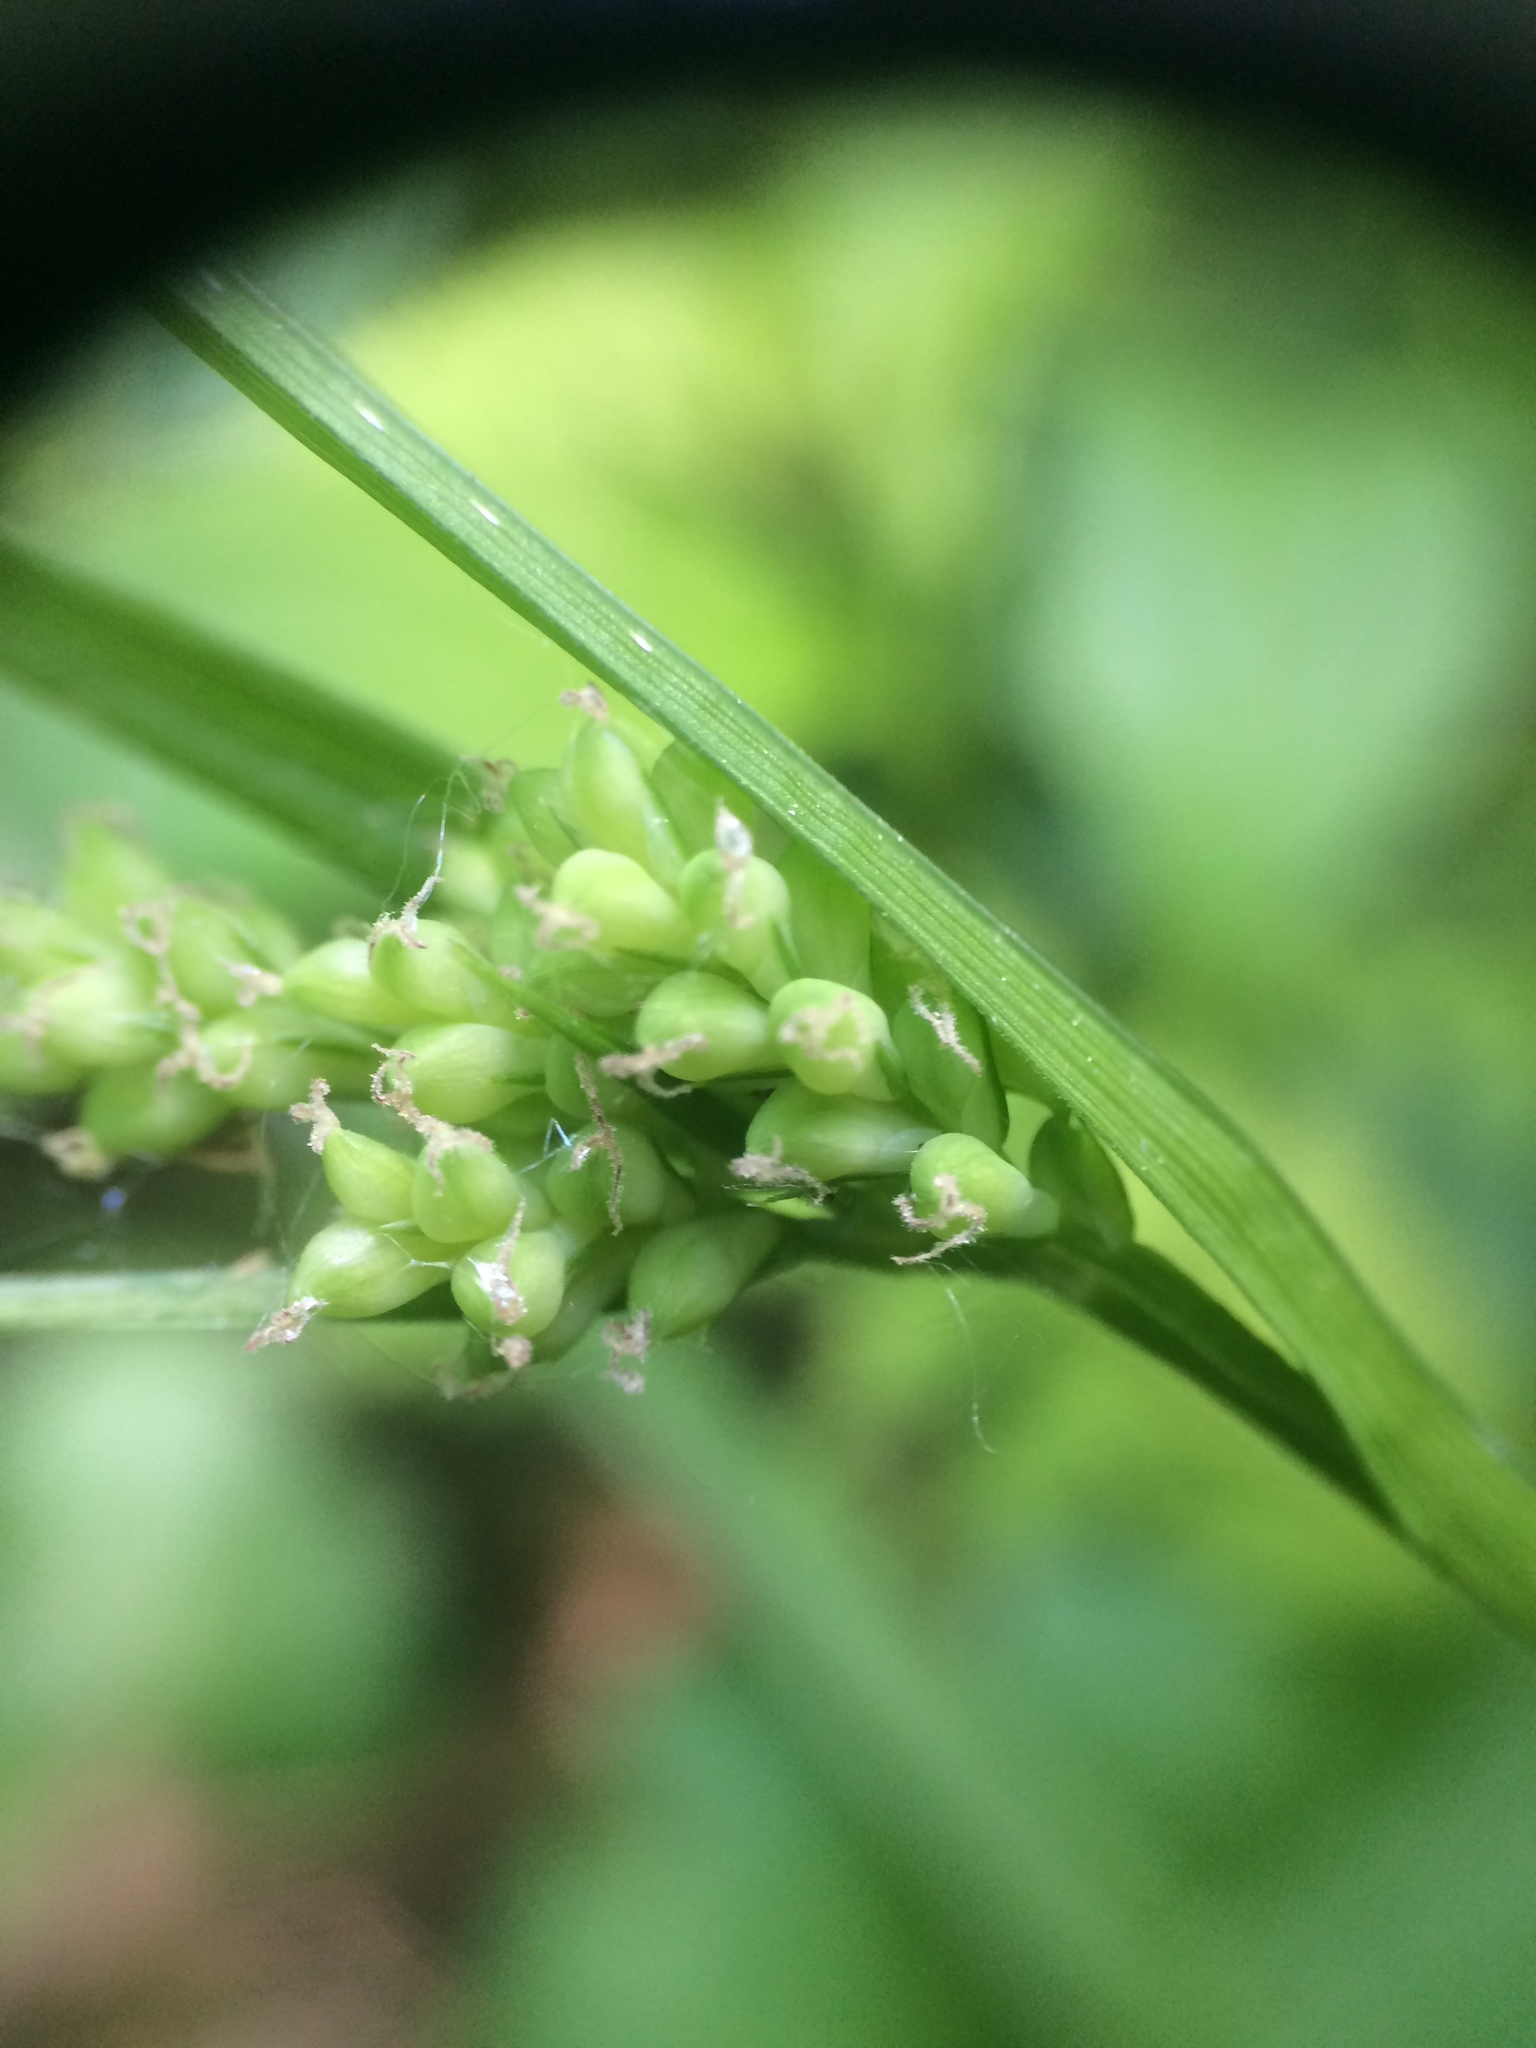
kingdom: Plantae
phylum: Tracheophyta
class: Liliopsida
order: Poales
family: Cyperaceae
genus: Carex
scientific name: Carex blanda
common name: Bland sedge
